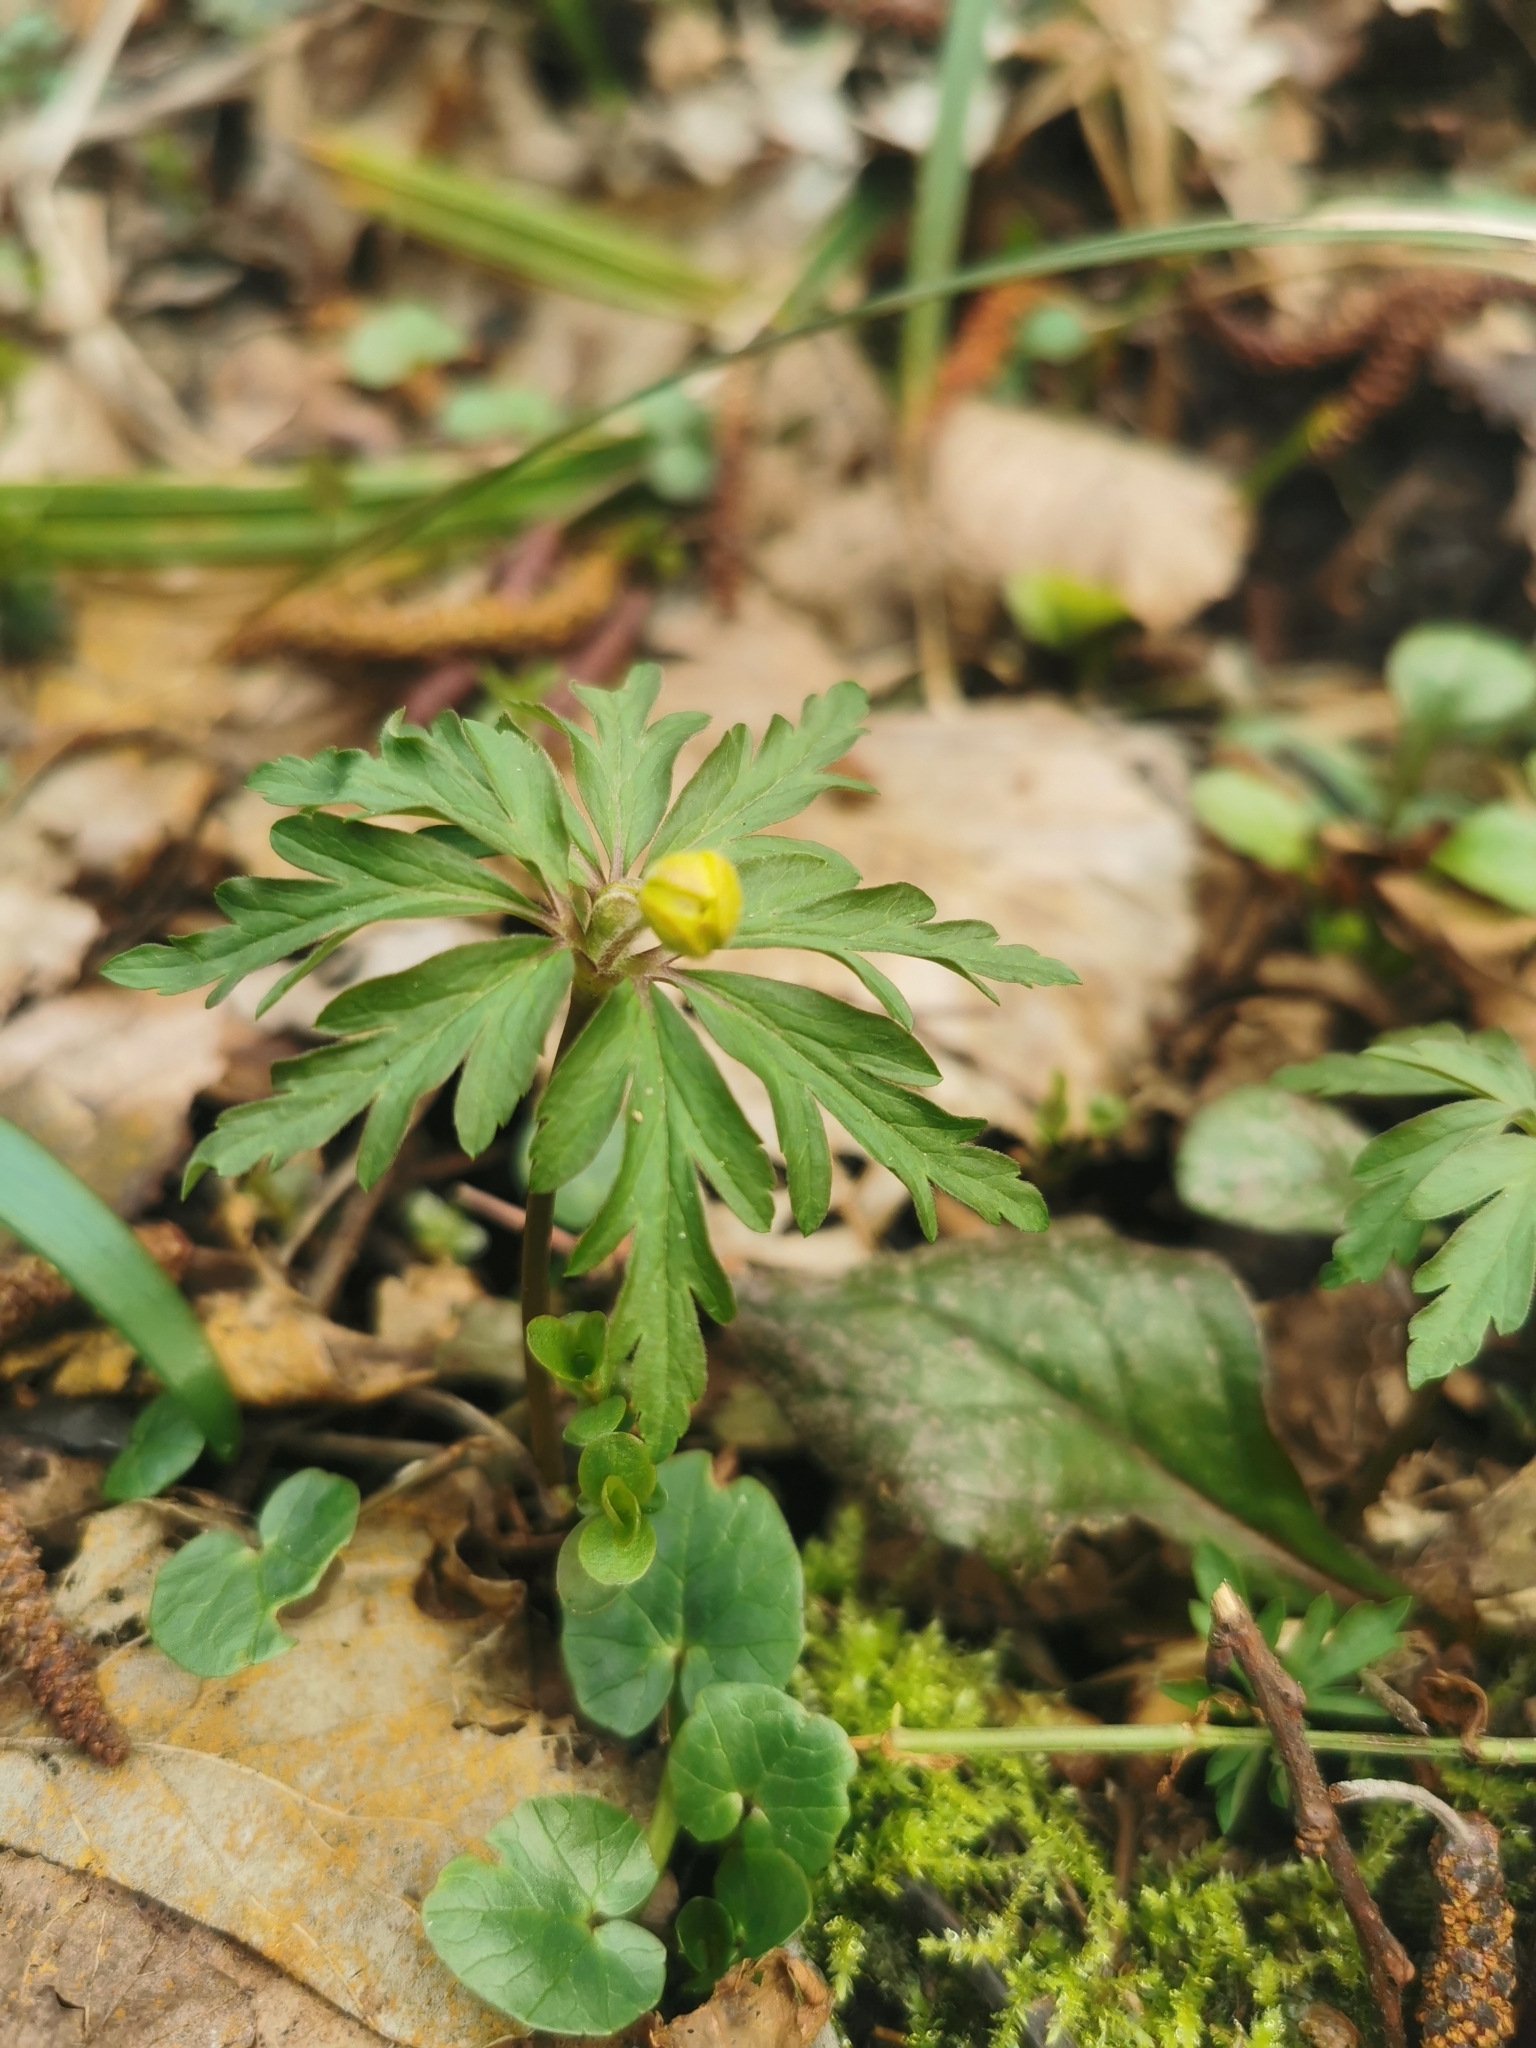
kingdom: Plantae
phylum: Tracheophyta
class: Magnoliopsida
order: Ranunculales
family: Ranunculaceae
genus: Anemone
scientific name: Anemone ranunculoides
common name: Yellow anemone
